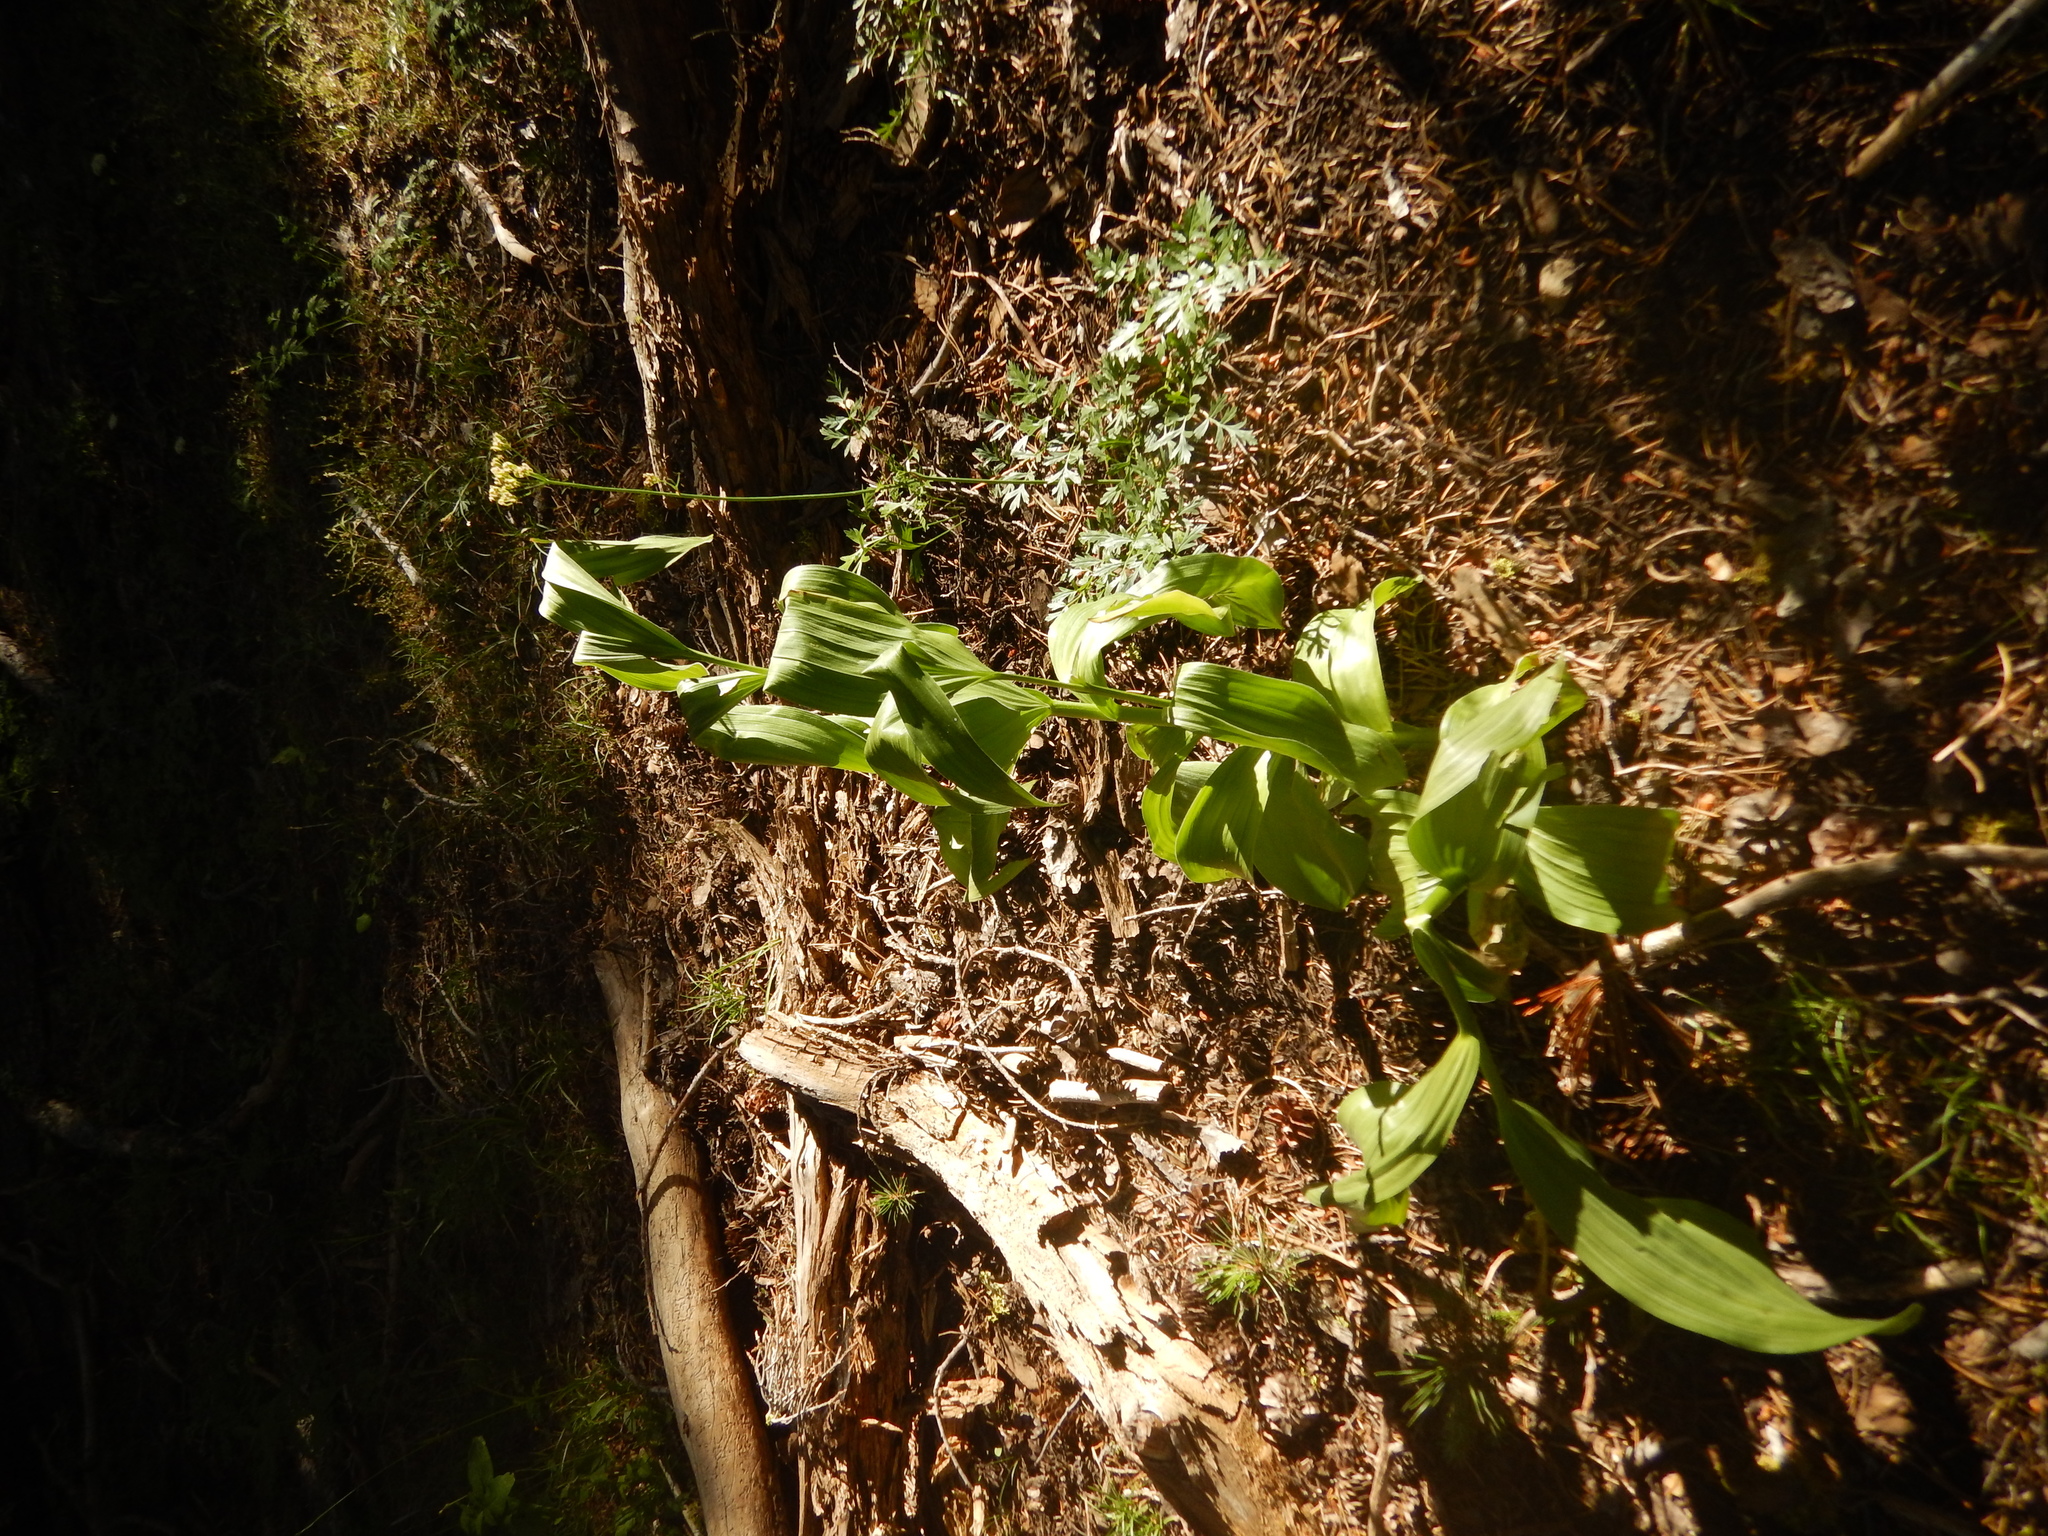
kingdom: Plantae
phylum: Tracheophyta
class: Liliopsida
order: Liliales
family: Melanthiaceae
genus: Veratrum
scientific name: Veratrum californicum
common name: California veratrum
